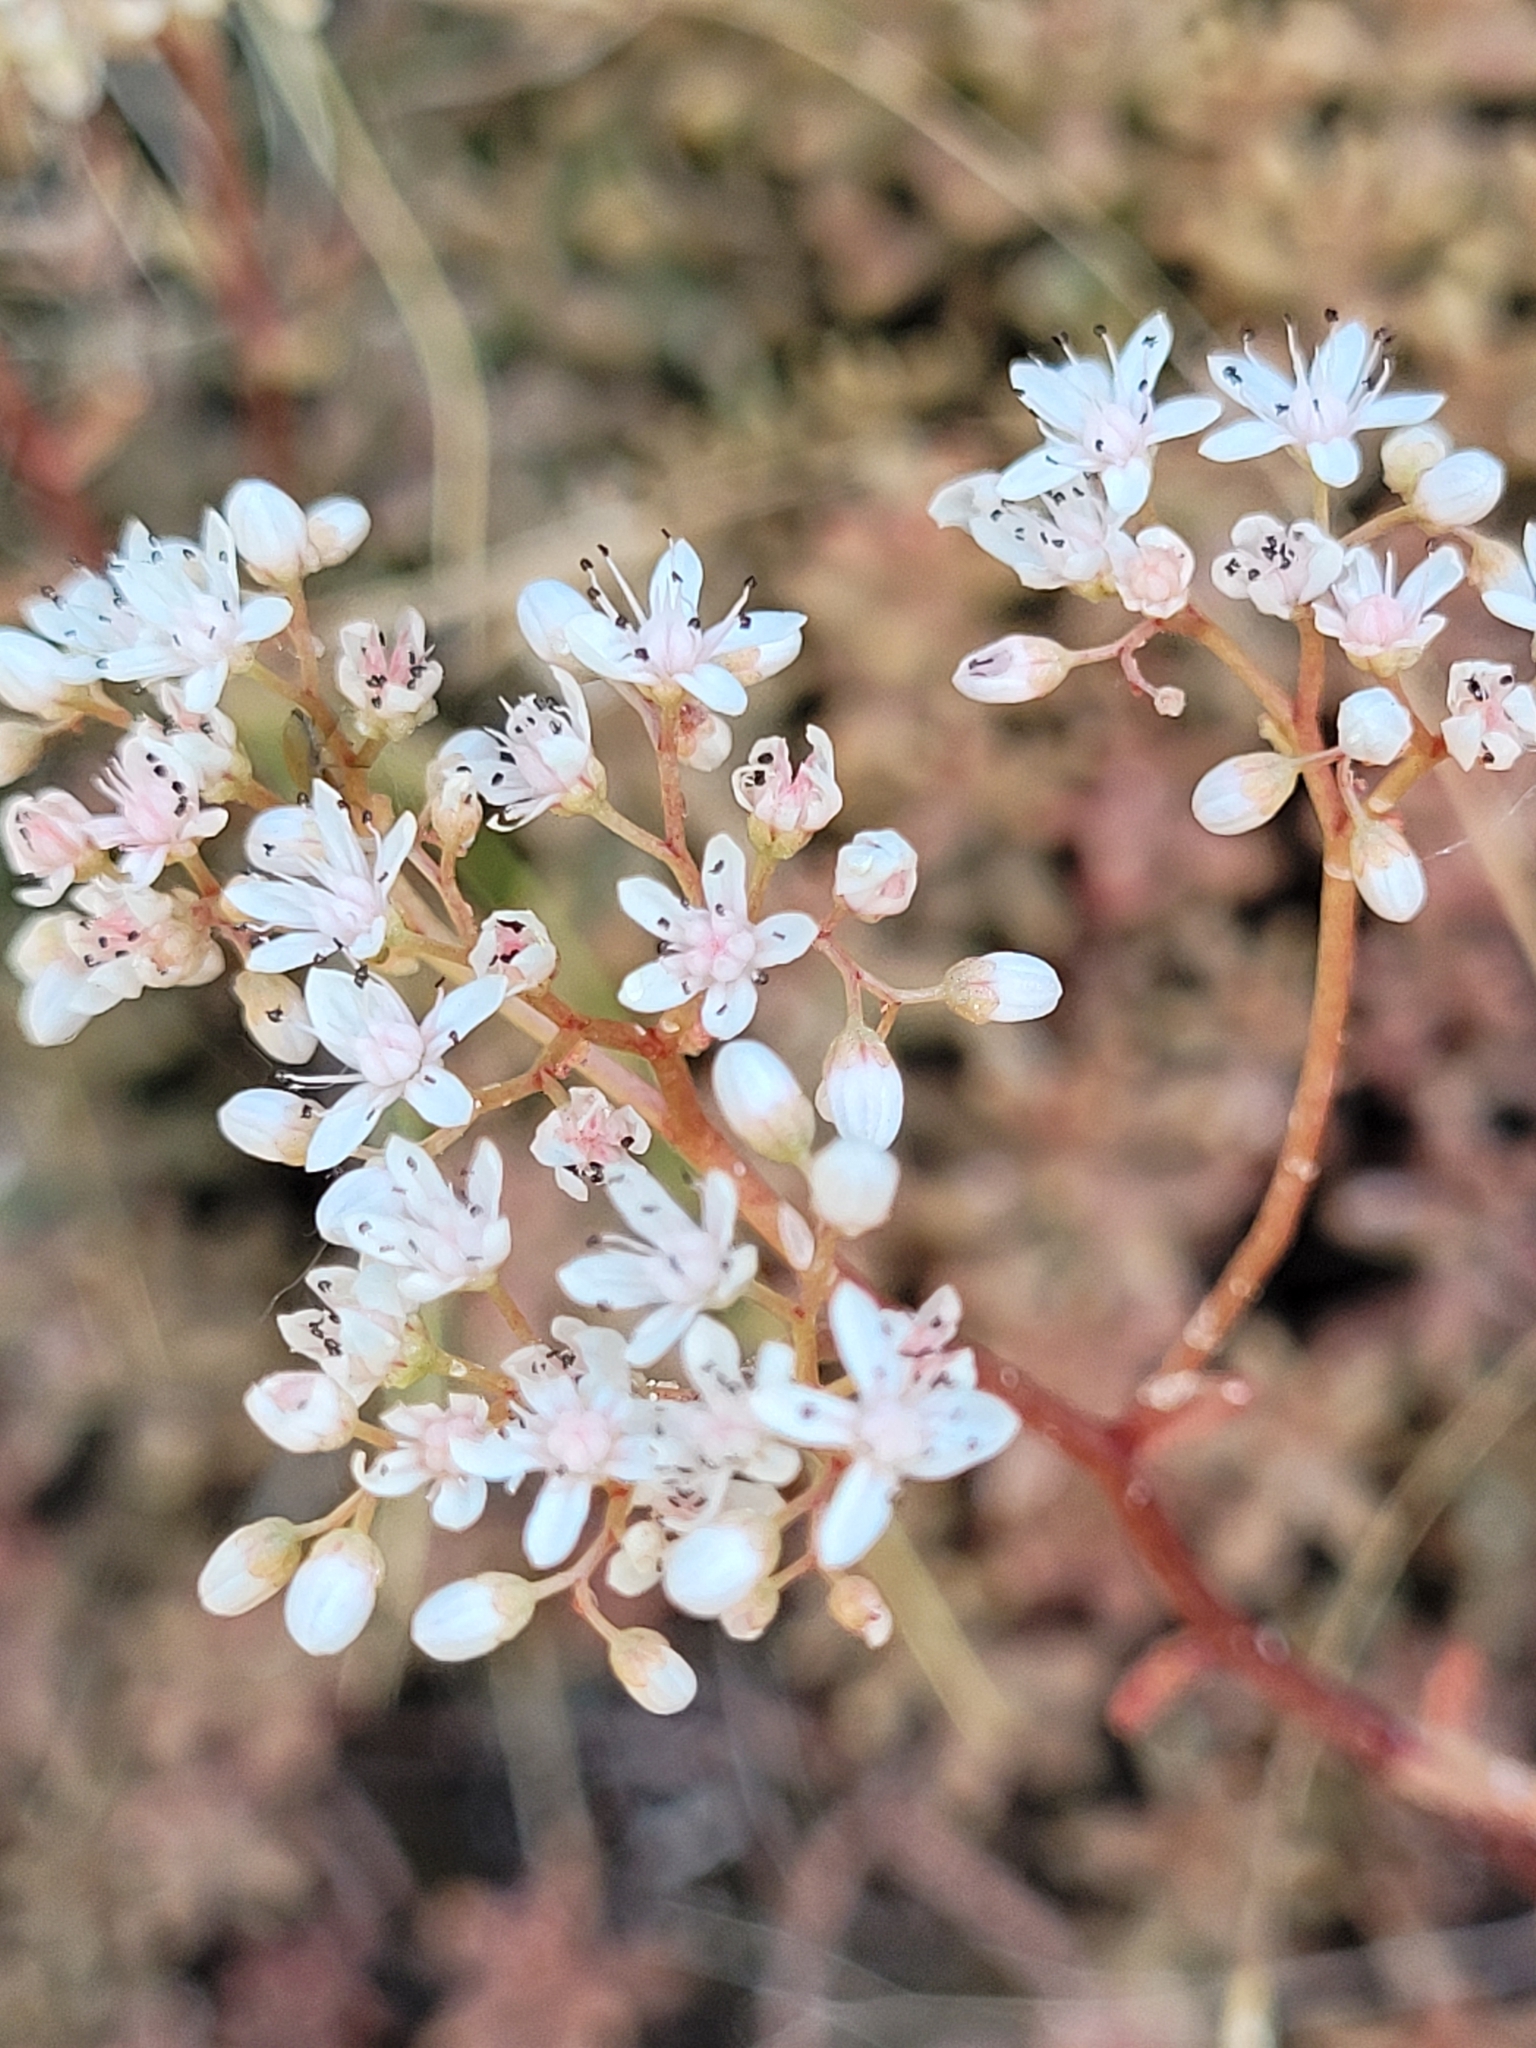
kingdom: Plantae
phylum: Tracheophyta
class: Magnoliopsida
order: Saxifragales
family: Crassulaceae
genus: Sedum
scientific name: Sedum album
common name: White stonecrop
